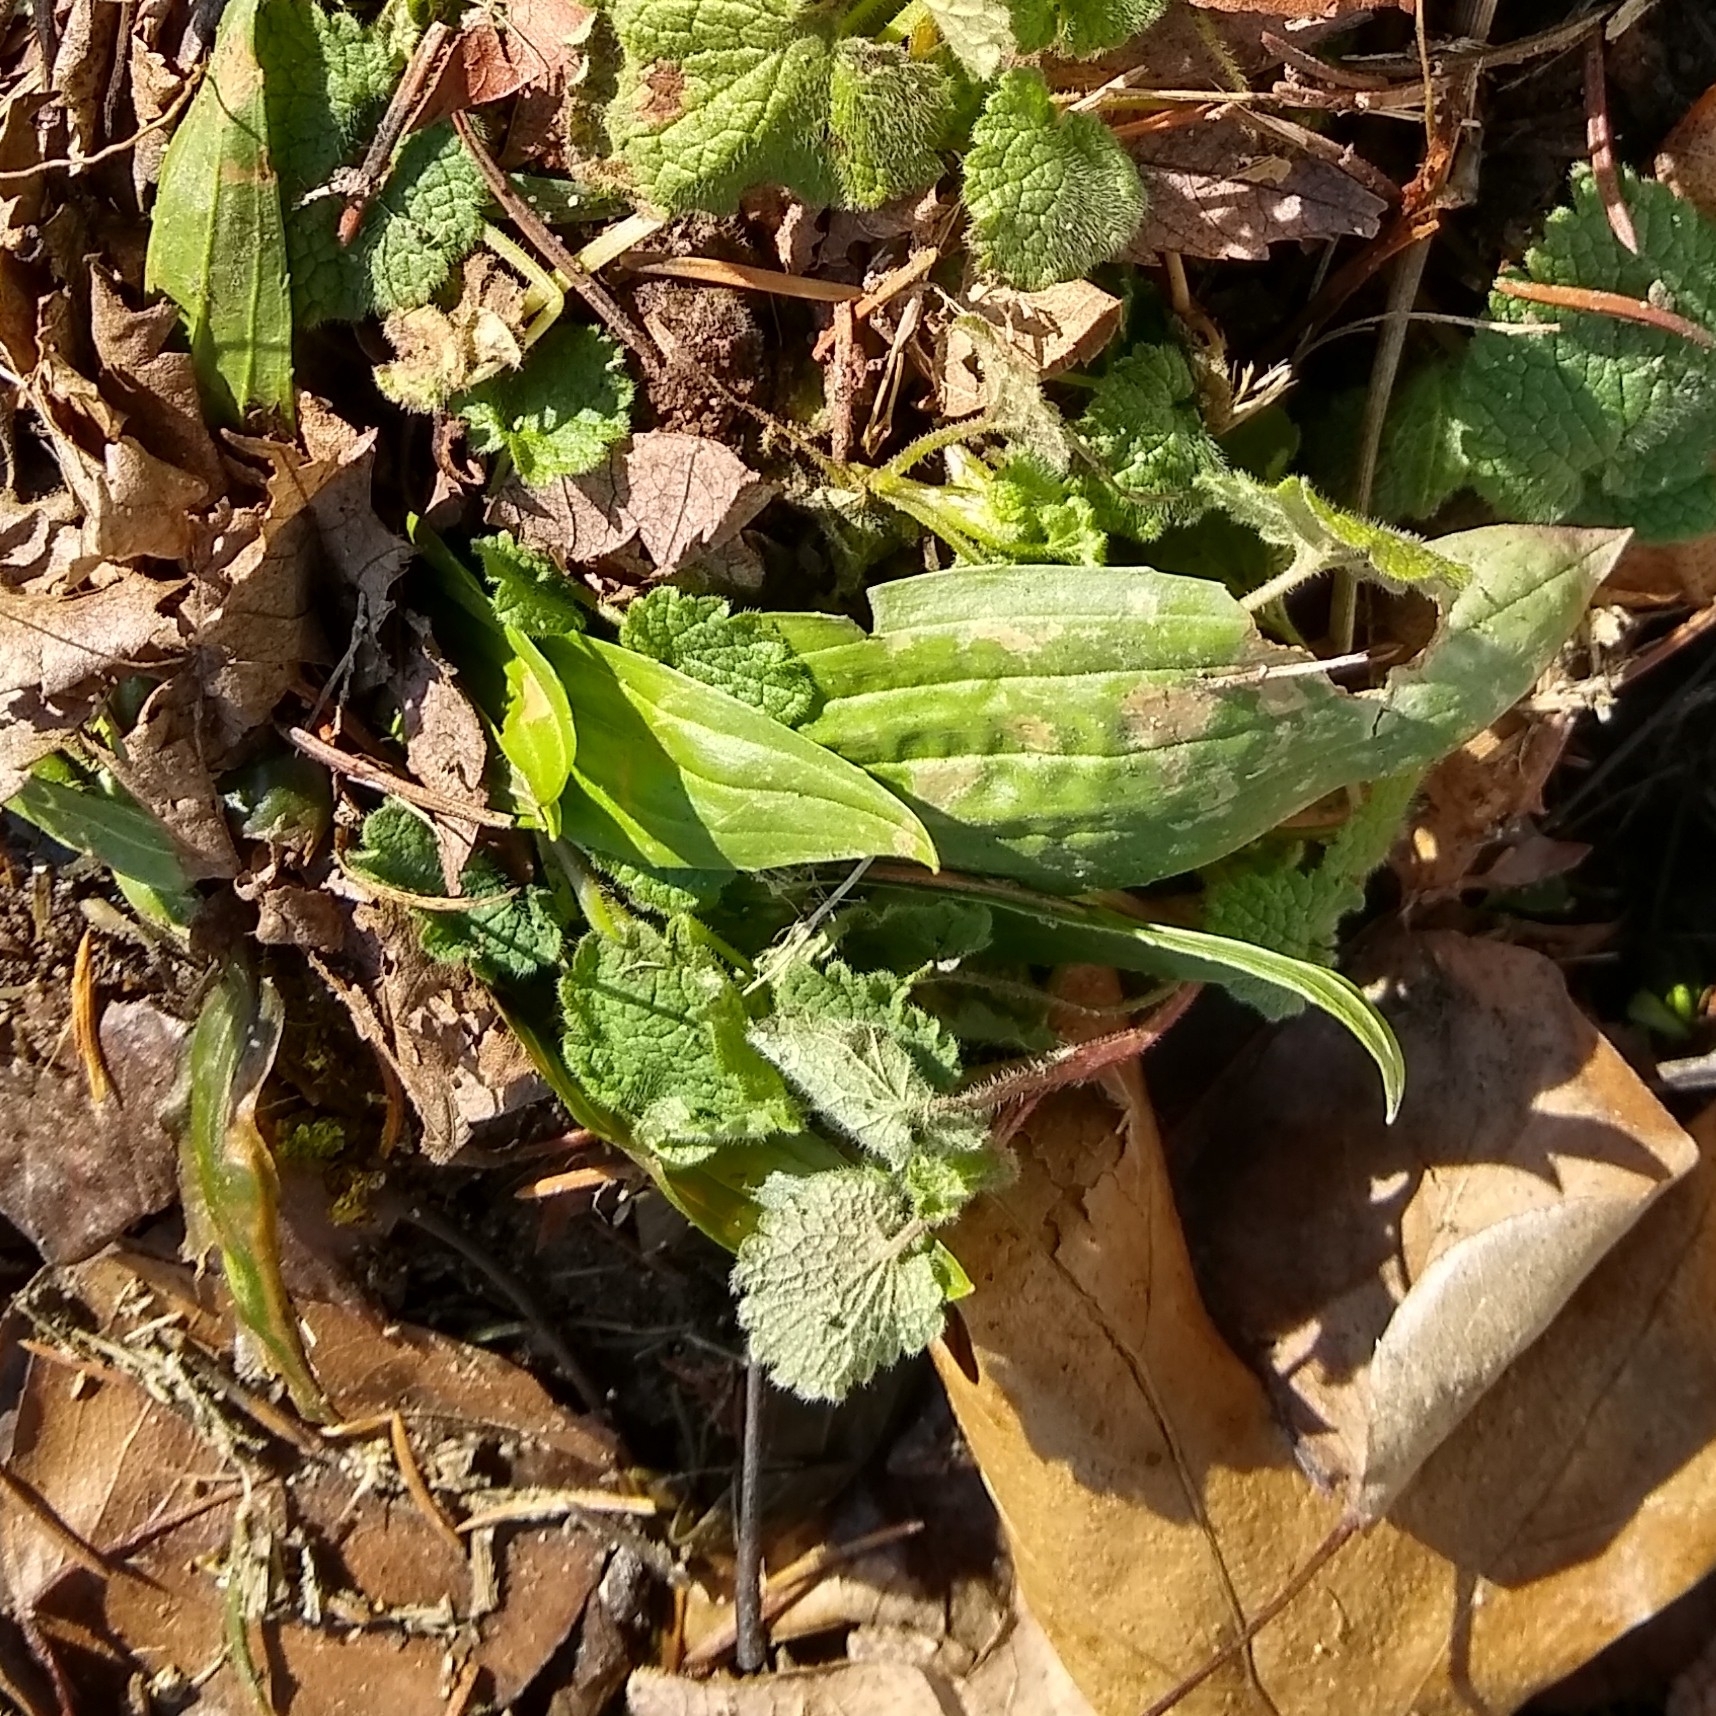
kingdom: Plantae
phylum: Tracheophyta
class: Magnoliopsida
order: Lamiales
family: Plantaginaceae
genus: Plantago
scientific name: Plantago lanceolata
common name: Ribwort plantain
